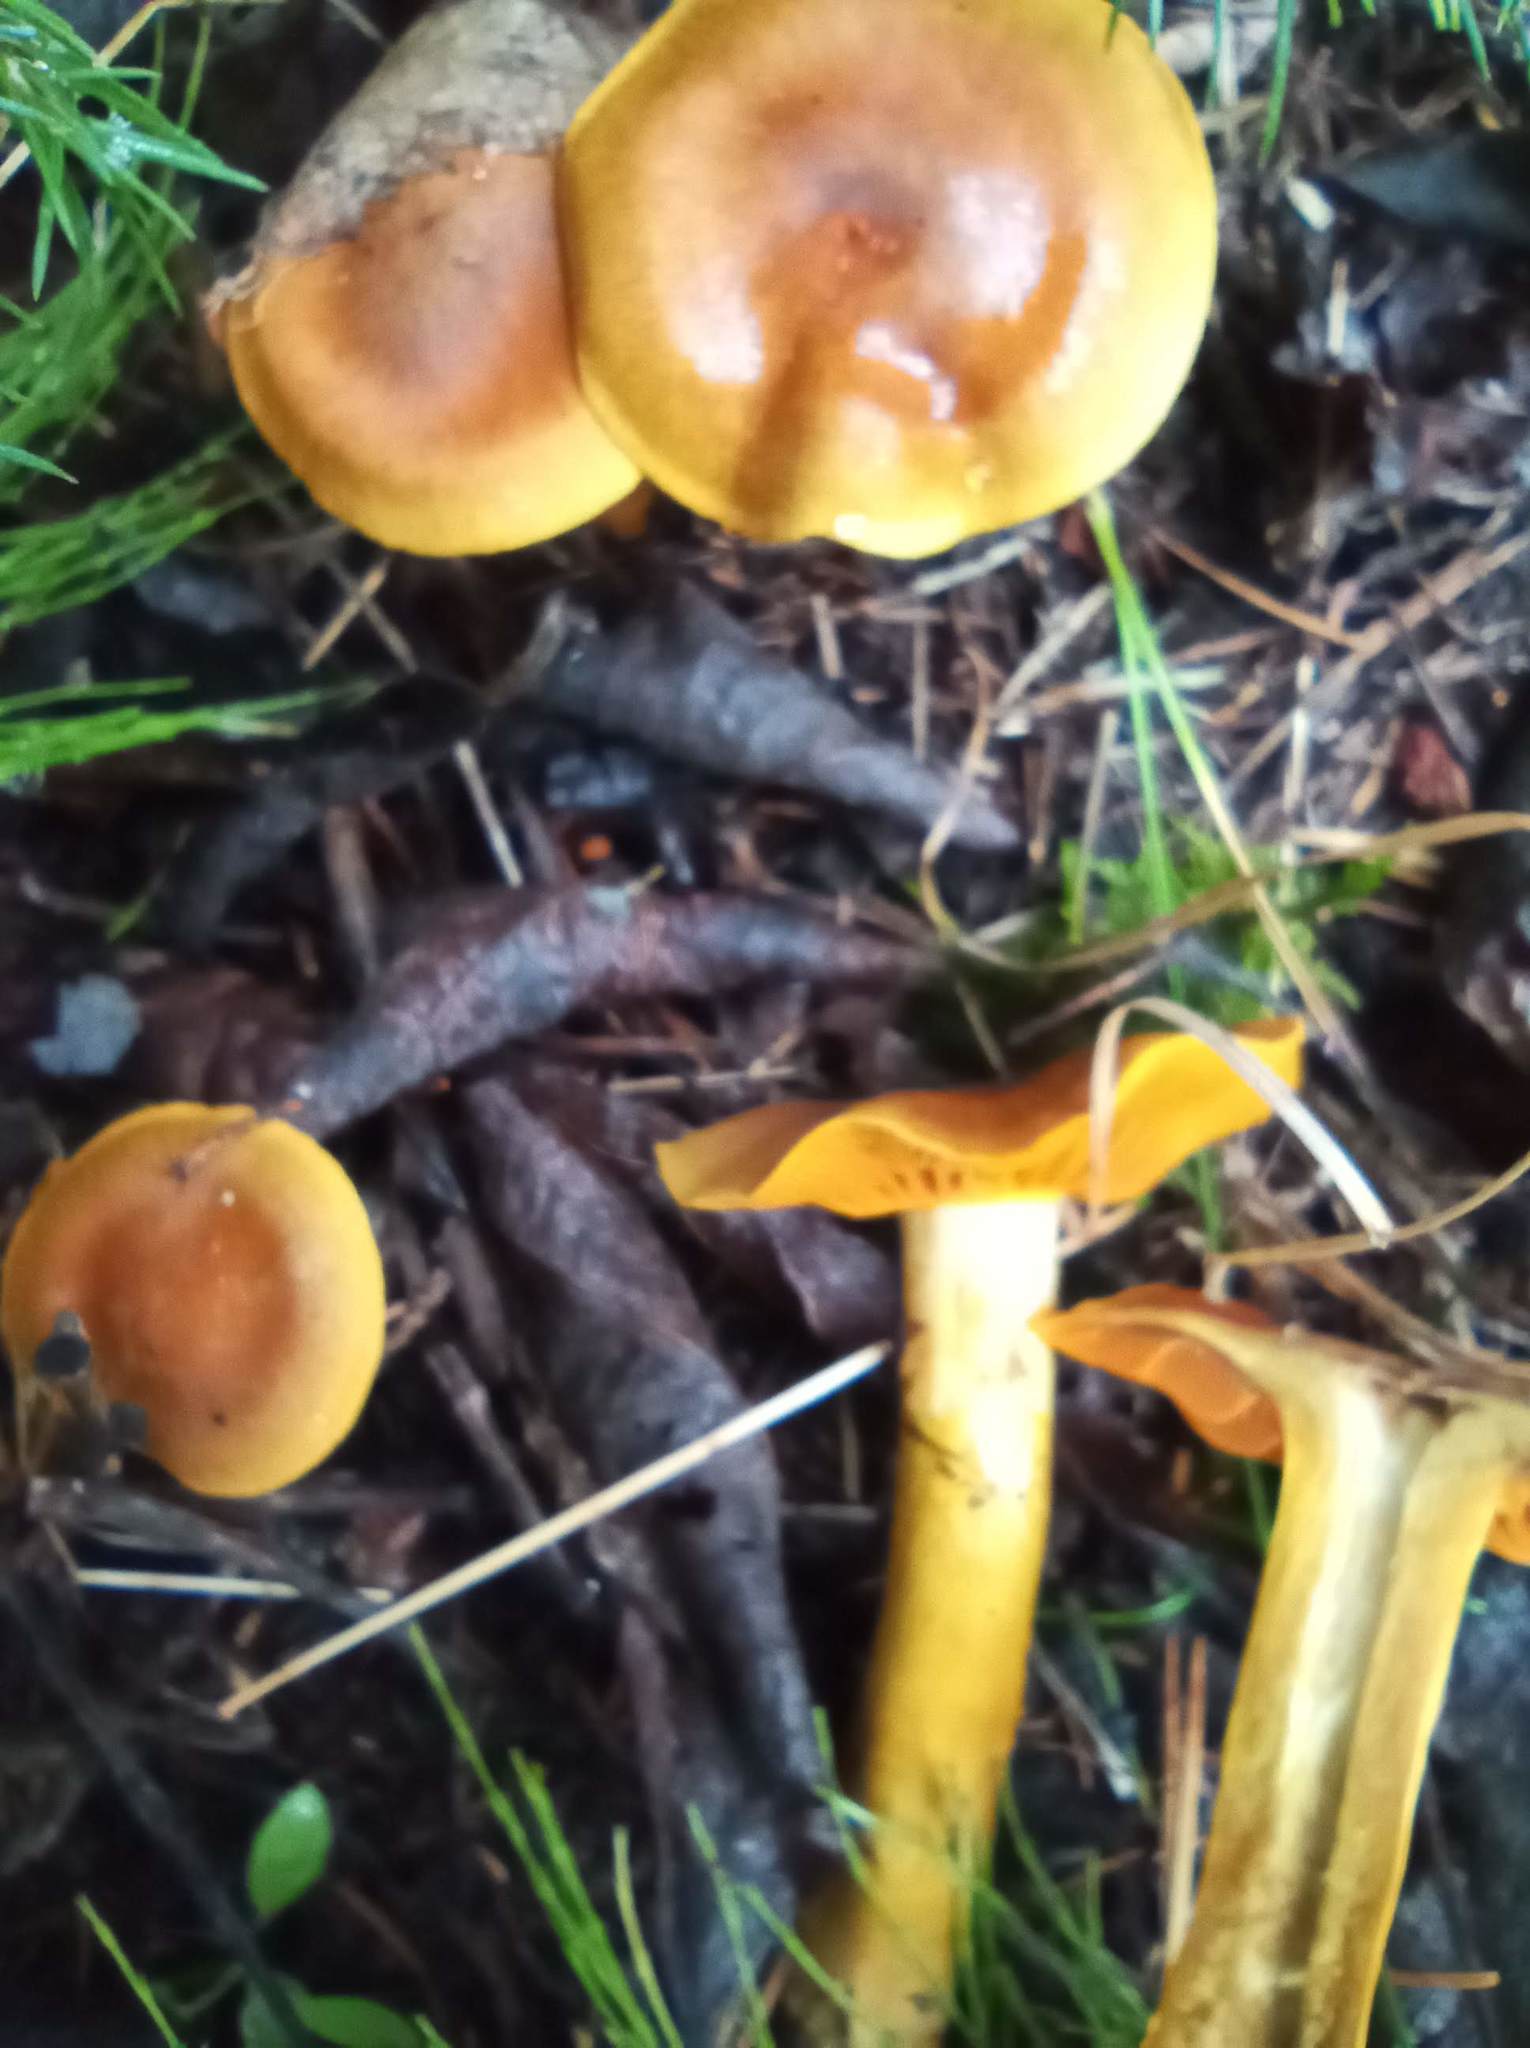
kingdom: Fungi
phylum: Basidiomycota
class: Agaricomycetes
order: Agaricales
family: Cortinariaceae
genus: Cortinarius
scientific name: Cortinarius cinnamomeus
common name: Cinnamon webcap
